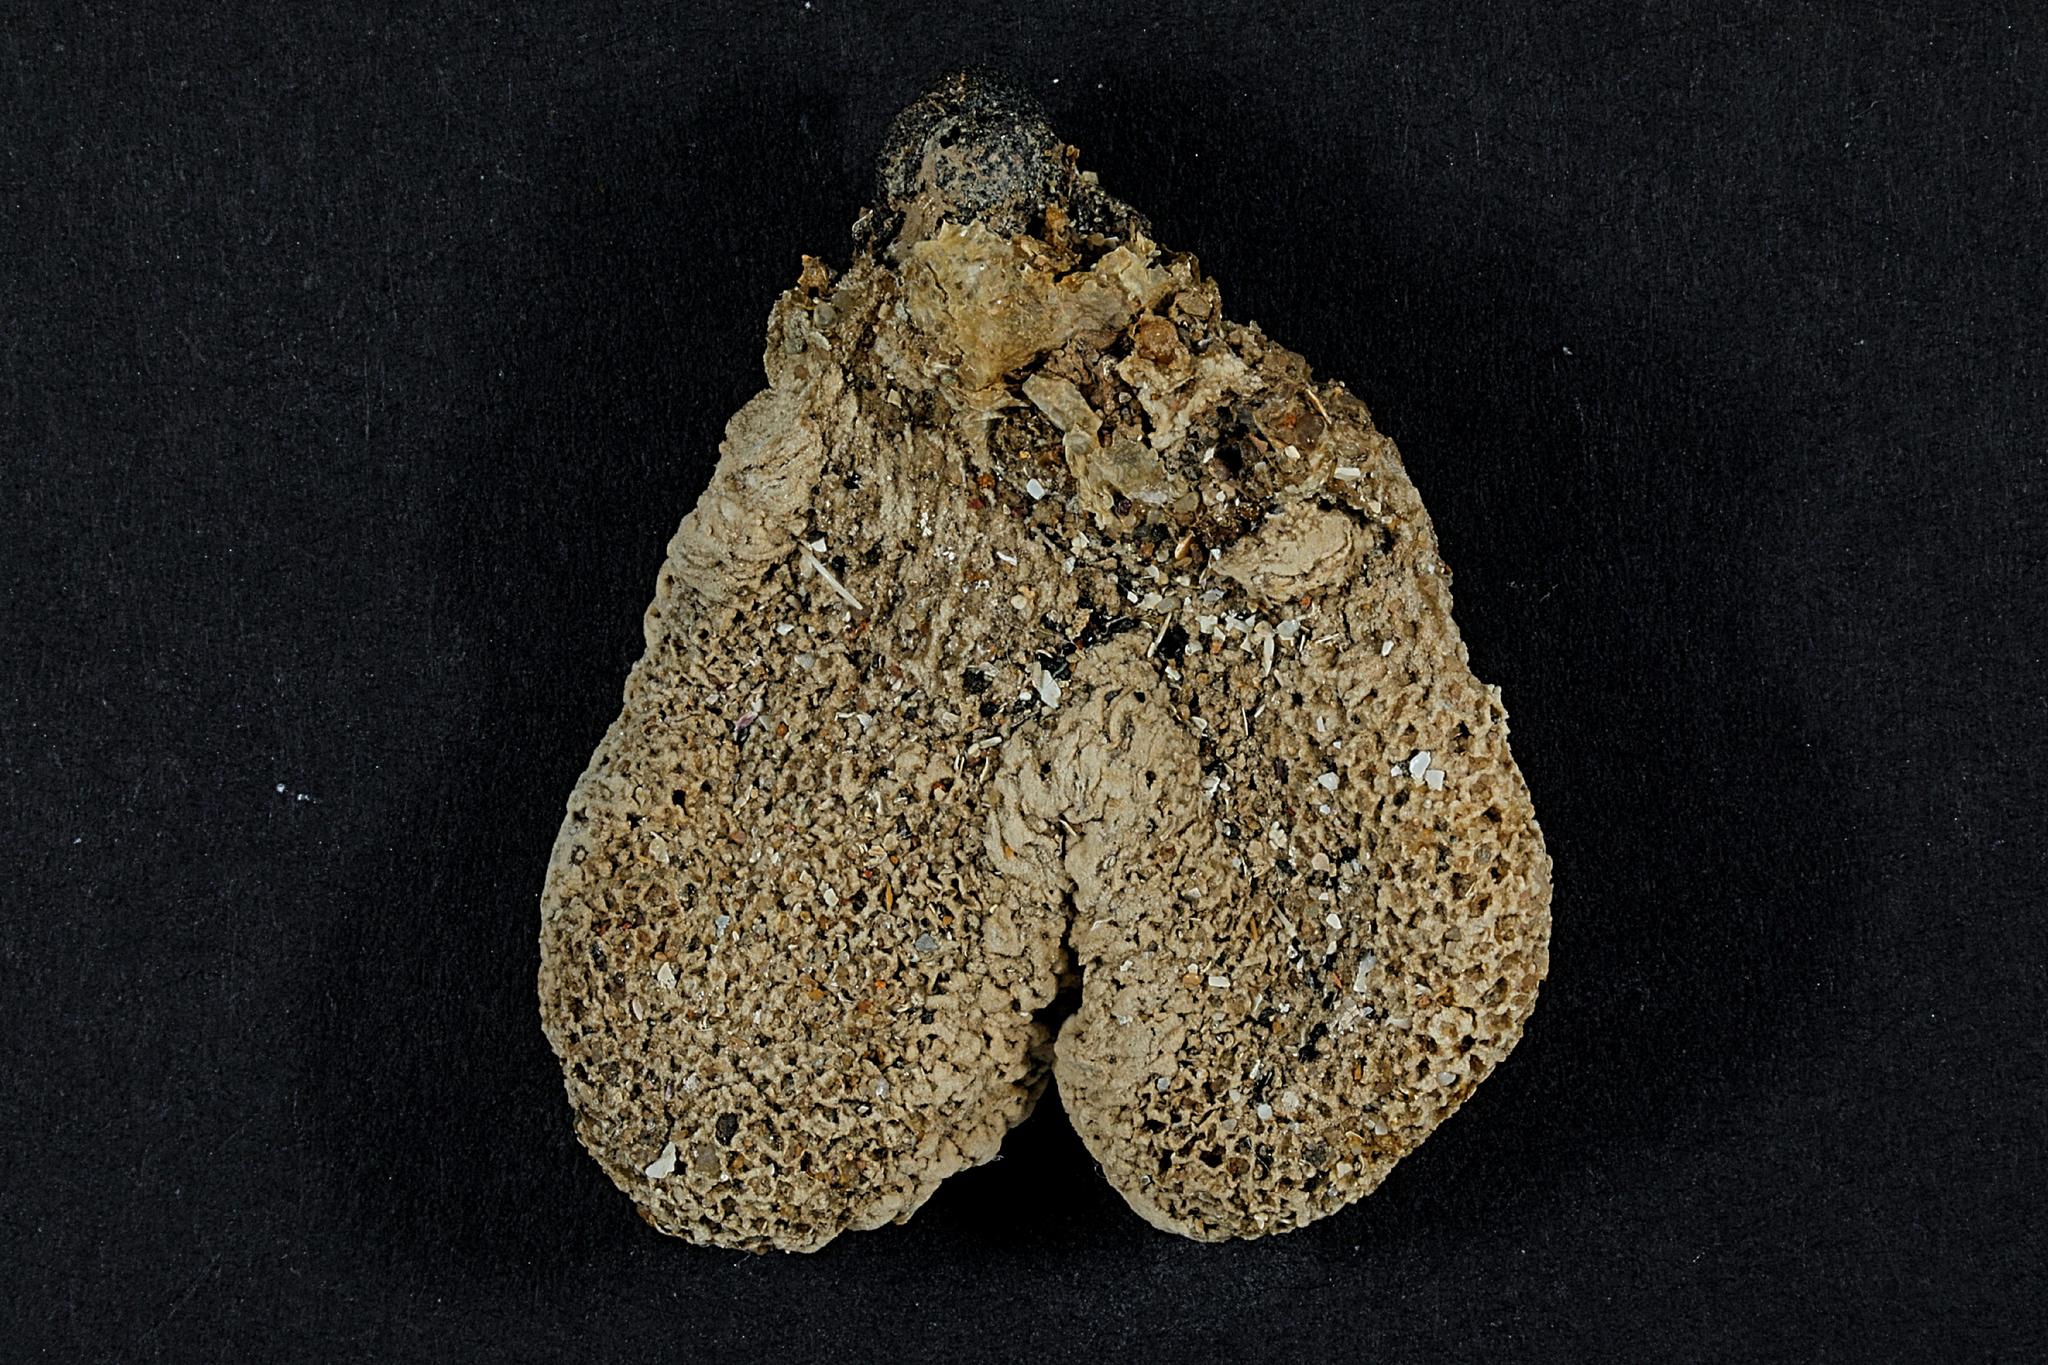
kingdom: Animalia
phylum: Cnidaria
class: Anthozoa
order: Malacalcyonacea
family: Alcyoniidae
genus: Alcyonium
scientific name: Alcyonium digitatum
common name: Dead man's fingers
